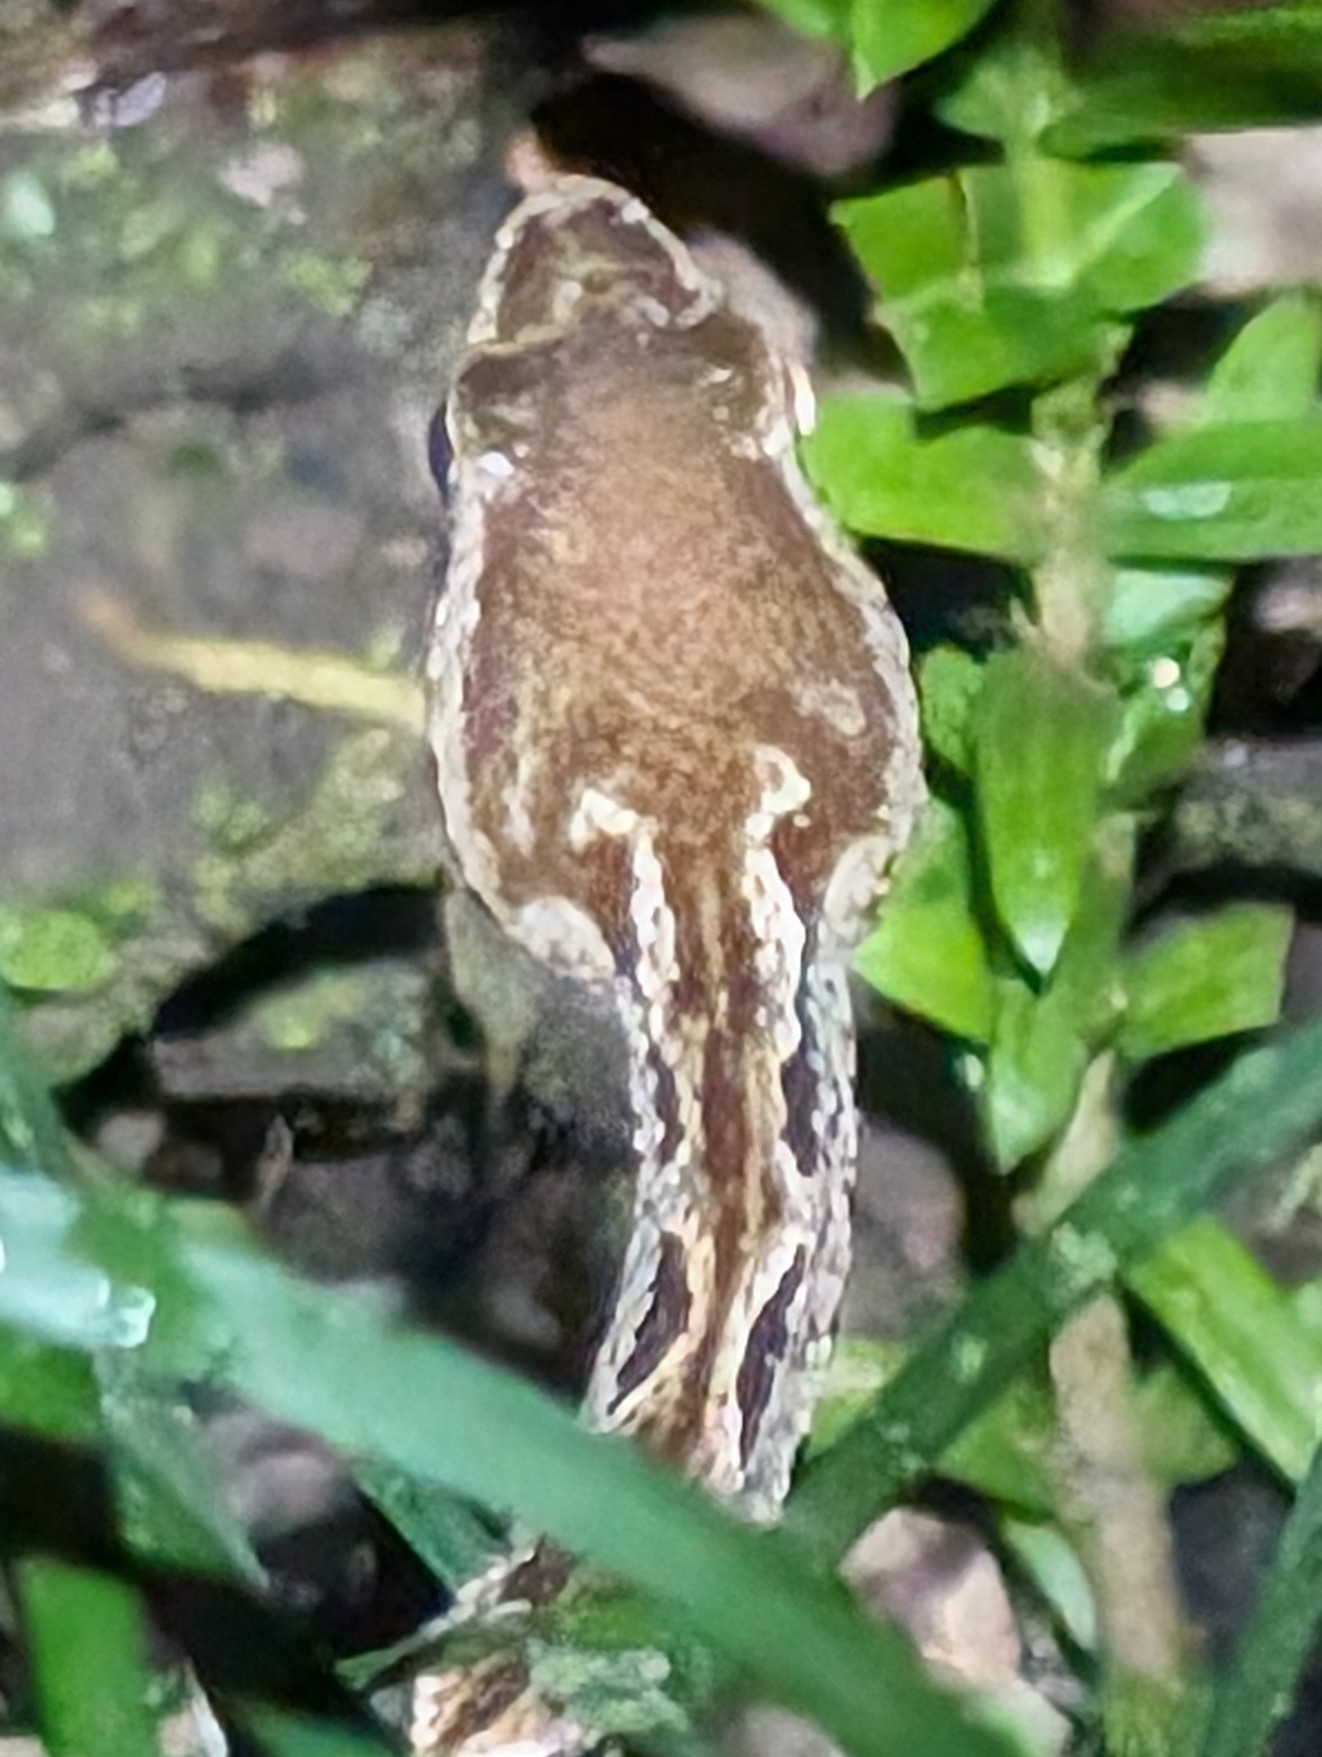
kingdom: Animalia
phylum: Chordata
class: Squamata
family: Viperidae
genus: Bothrops
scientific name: Bothrops asper
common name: Terciopelo
